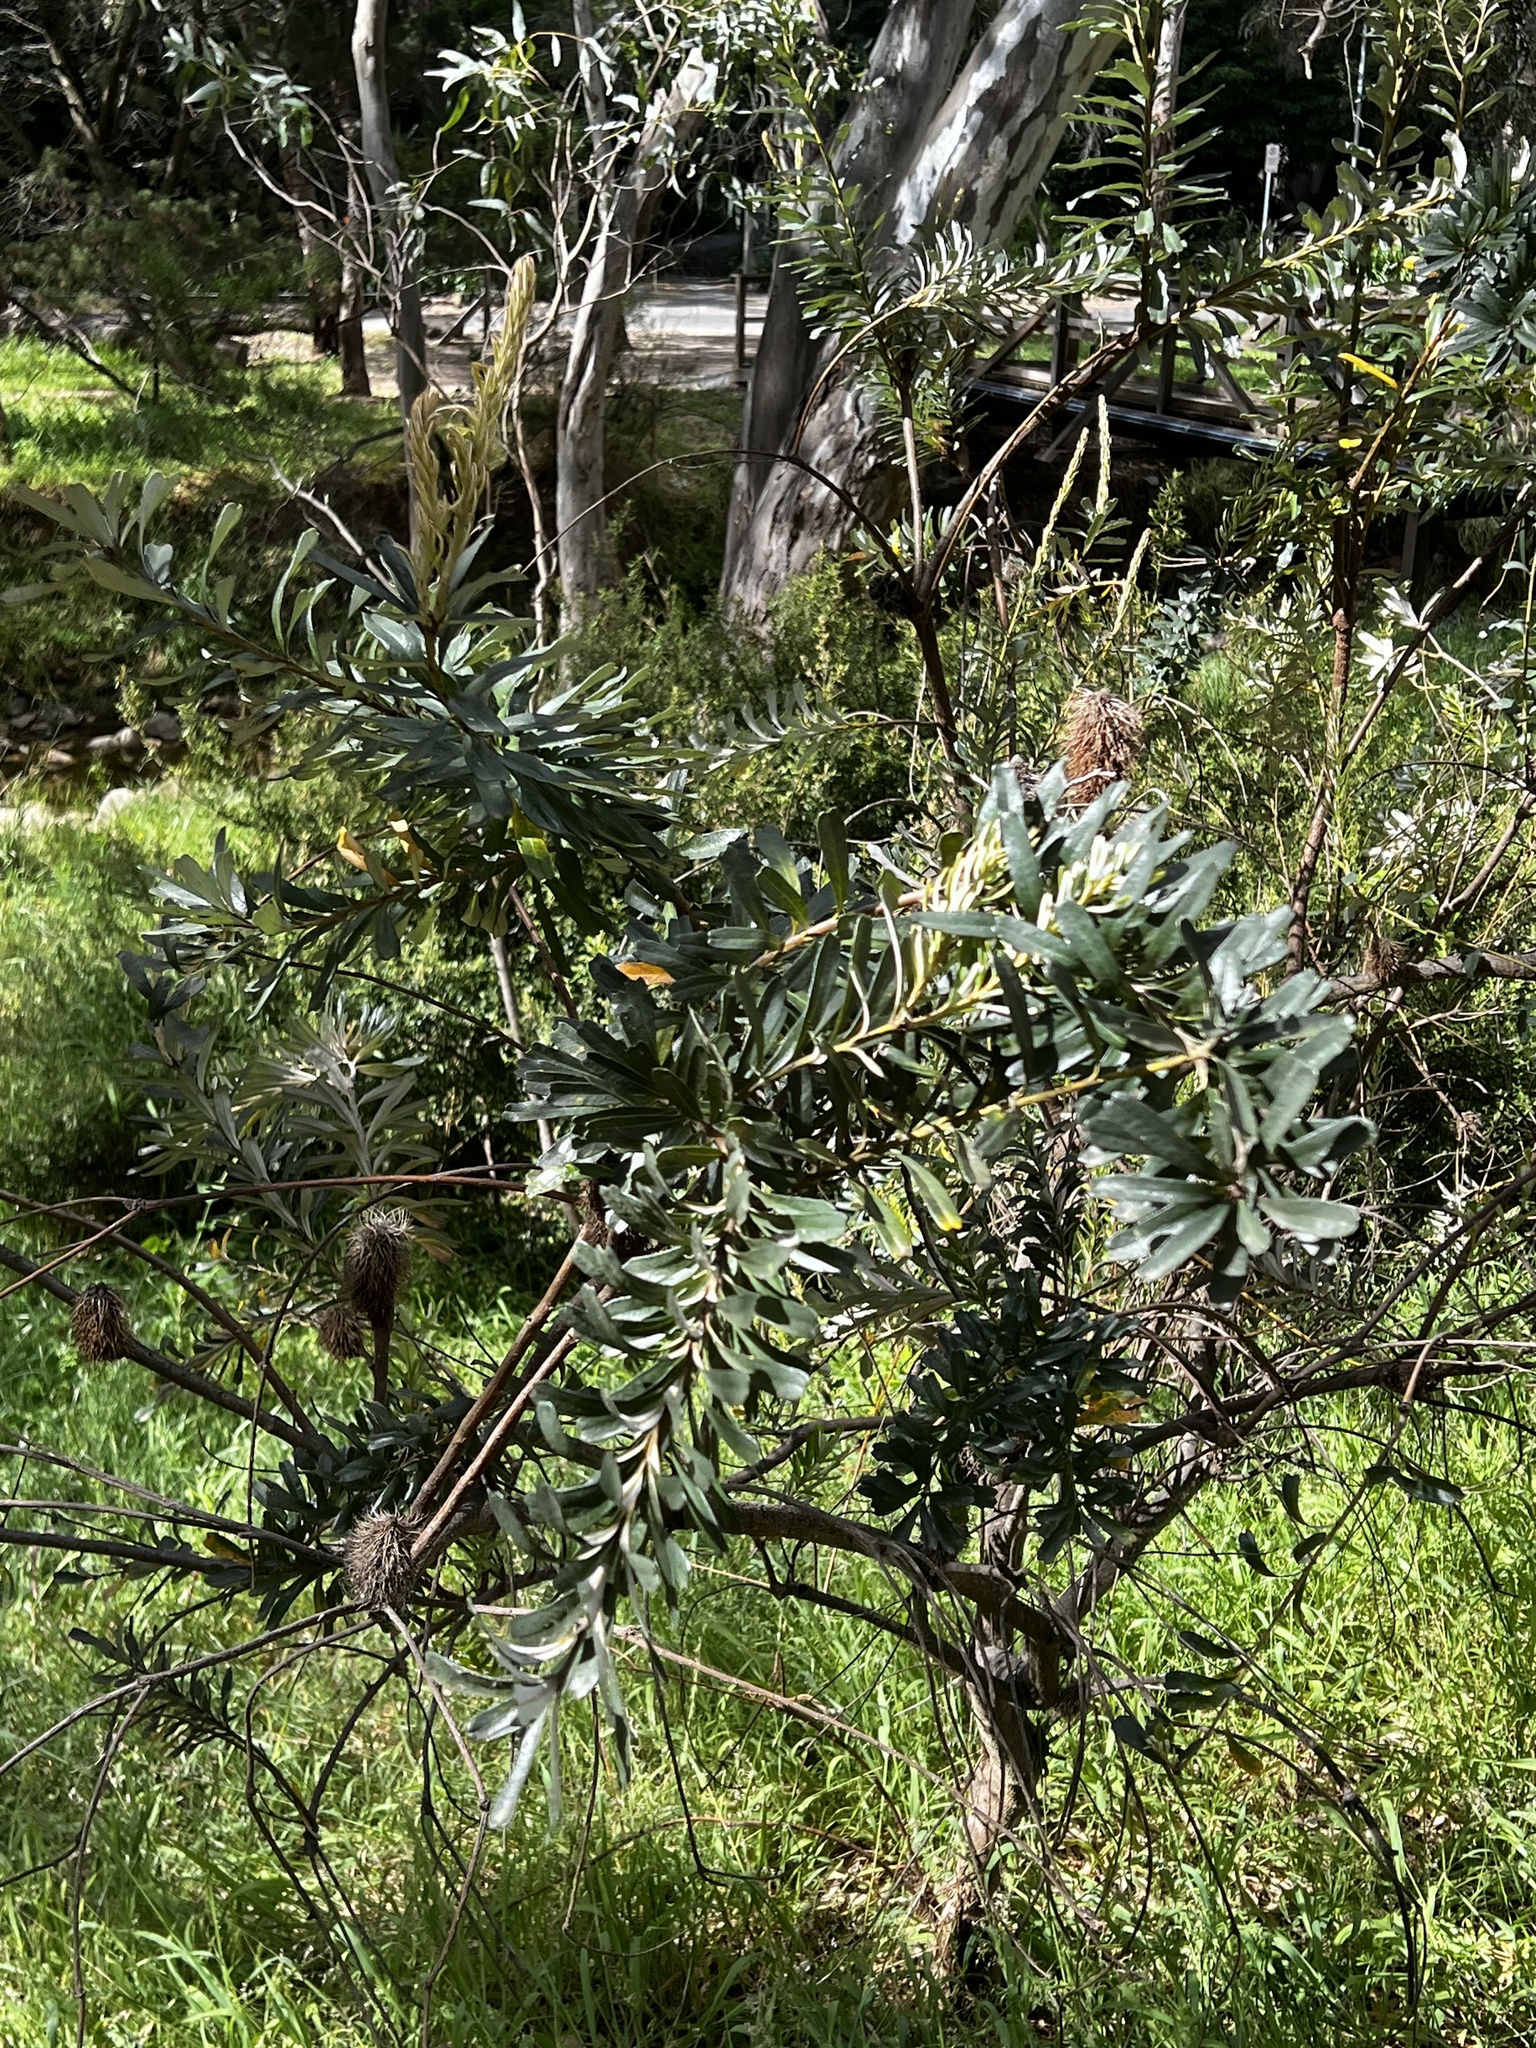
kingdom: Plantae
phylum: Tracheophyta
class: Magnoliopsida
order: Proteales
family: Proteaceae
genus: Banksia
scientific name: Banksia marginata
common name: Silver banksia
